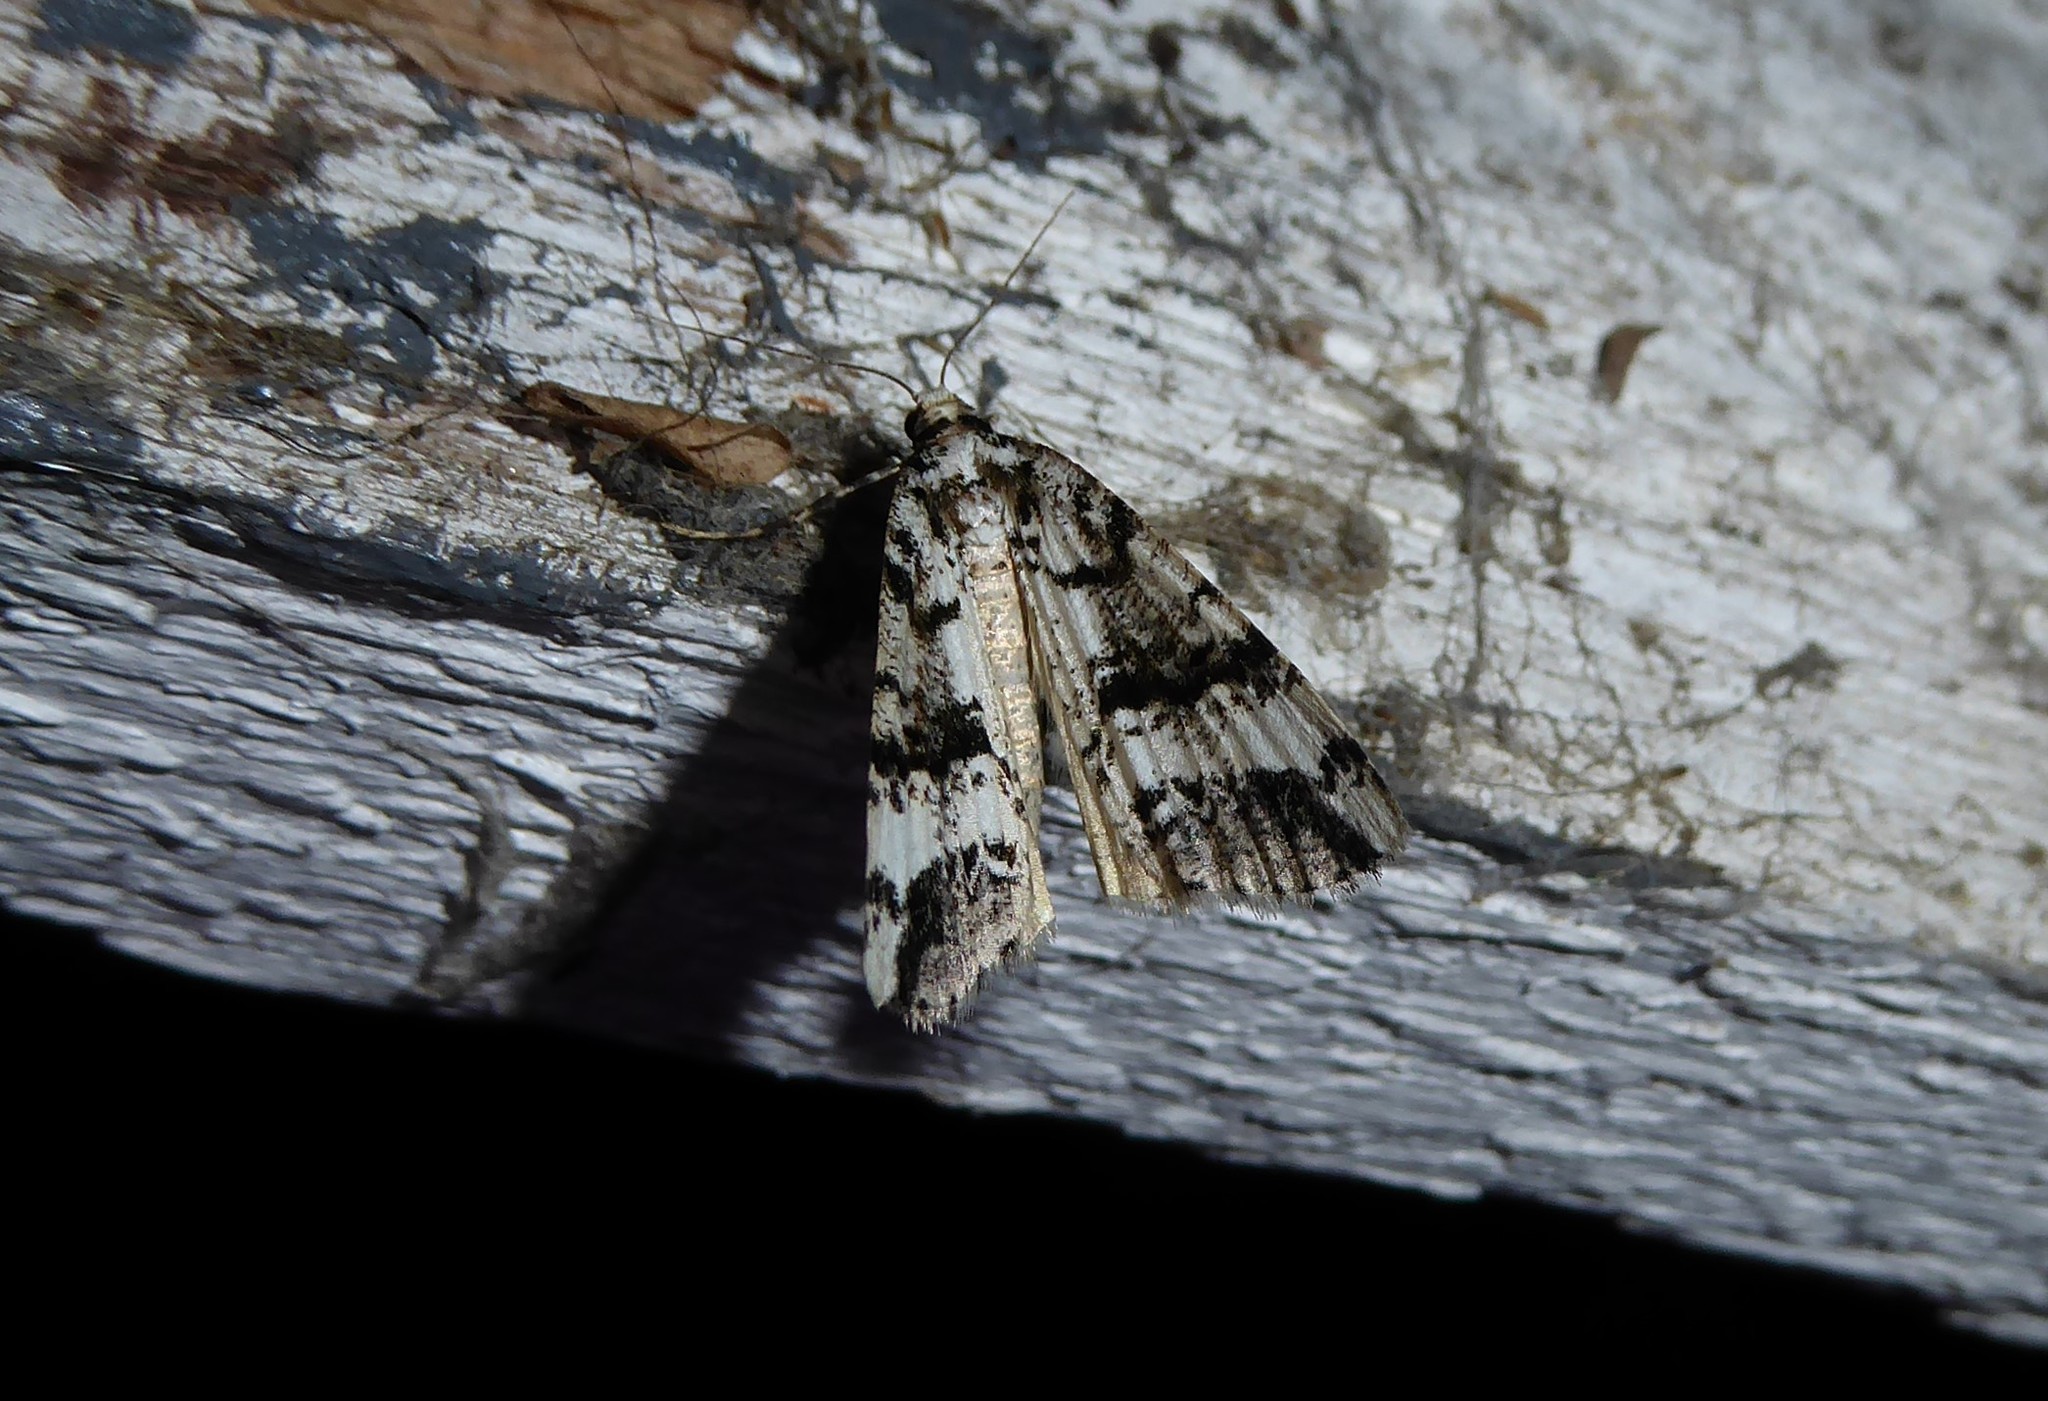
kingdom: Animalia
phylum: Arthropoda
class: Insecta
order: Lepidoptera
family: Geometridae
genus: Pseudocoremia
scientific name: Pseudocoremia leucelaea
